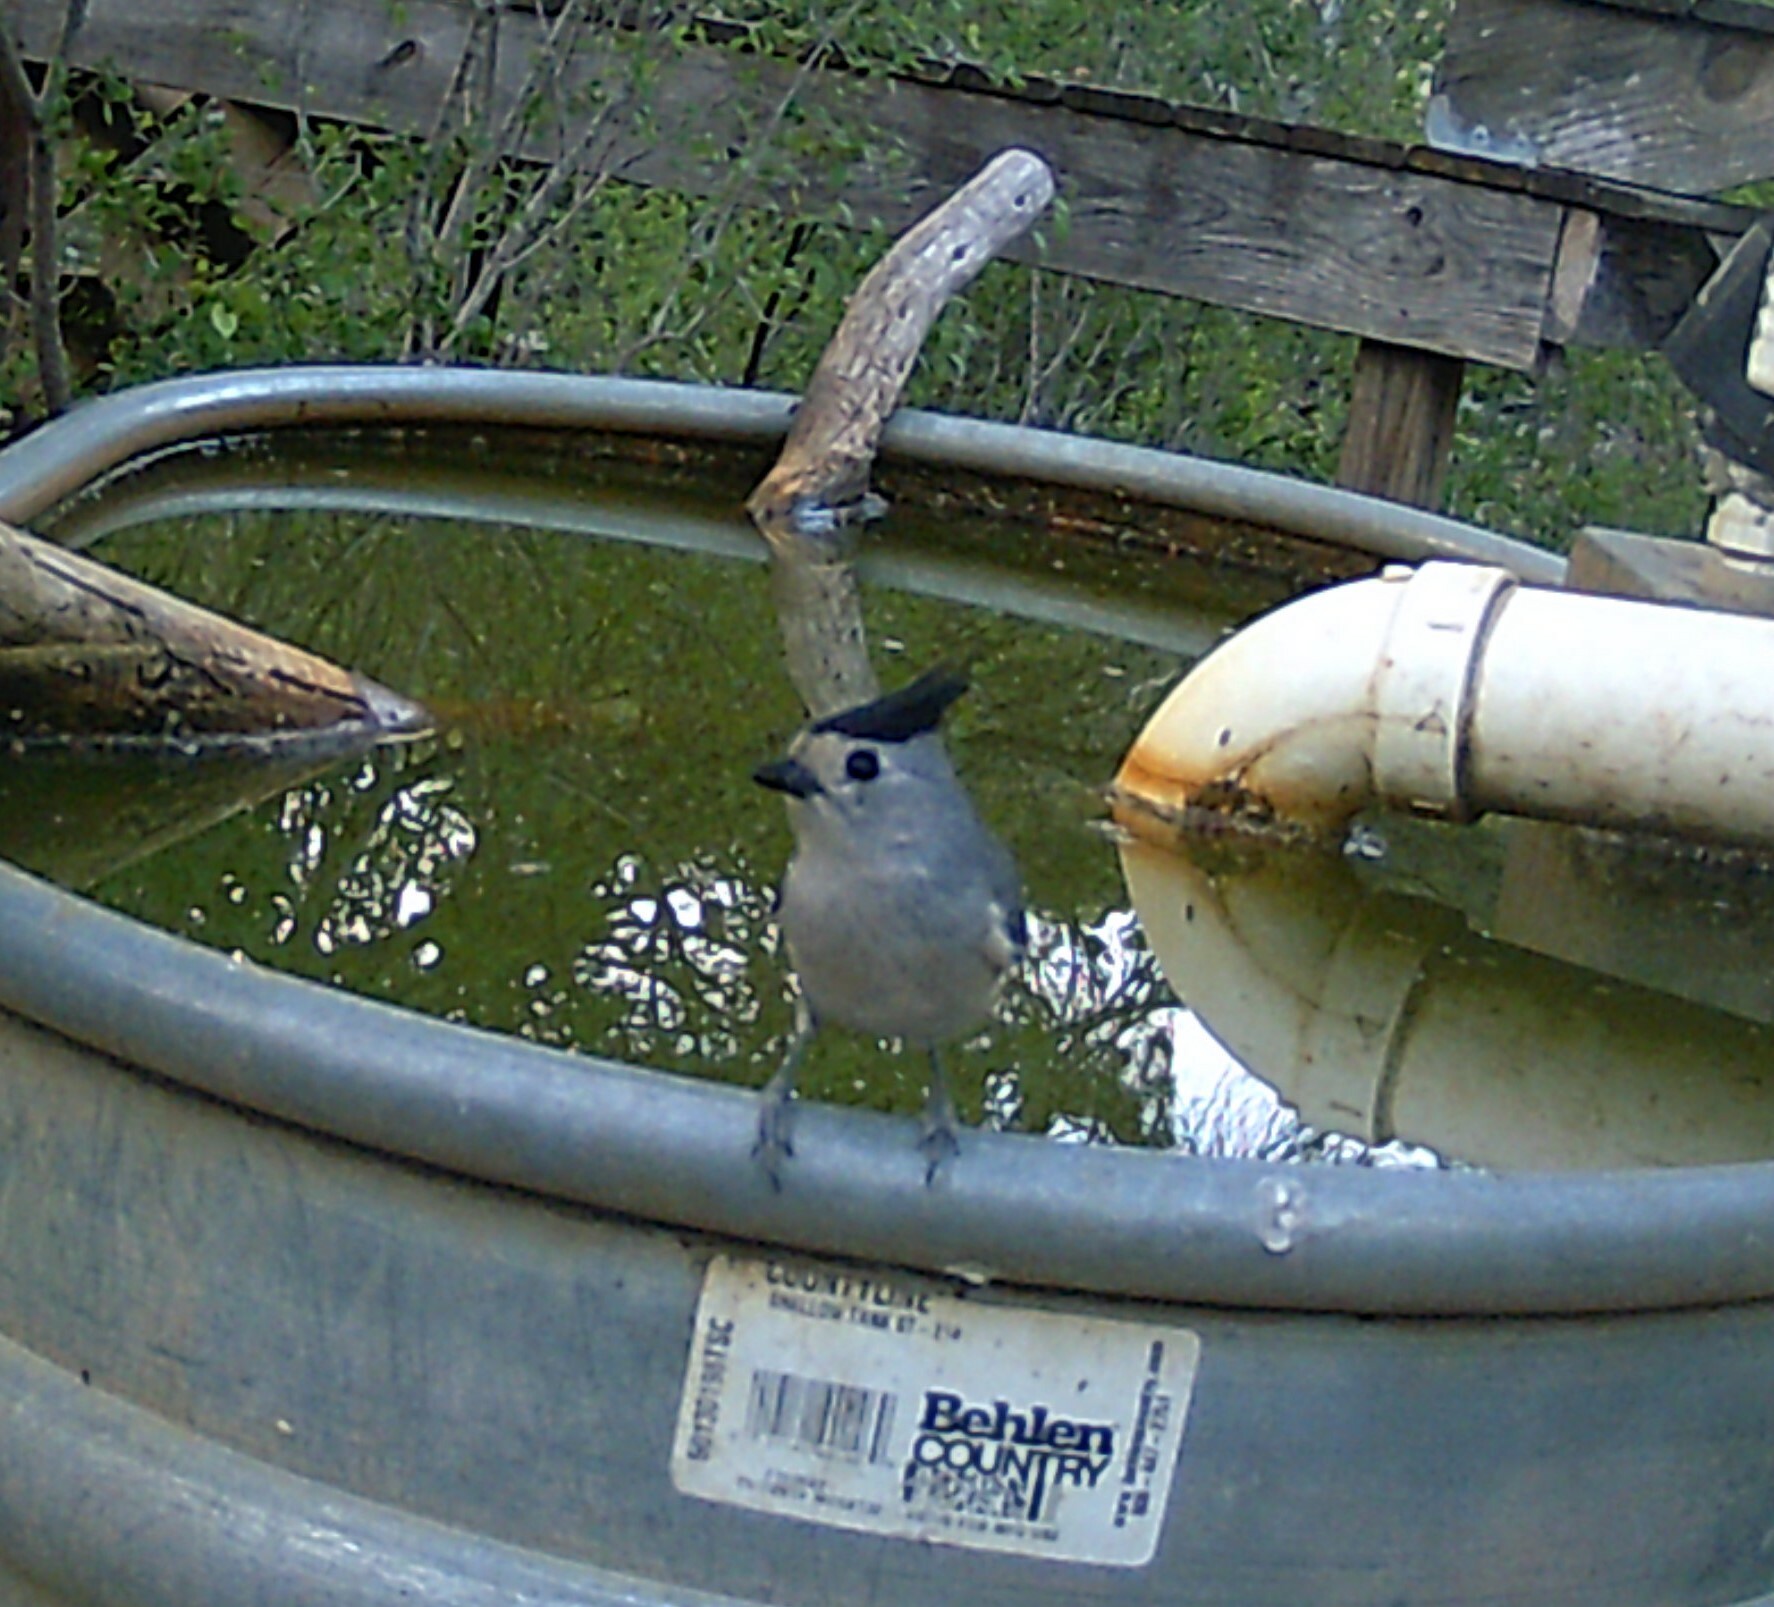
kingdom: Animalia
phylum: Chordata
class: Aves
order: Passeriformes
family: Paridae
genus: Baeolophus
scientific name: Baeolophus atricristatus
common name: Black-crested titmouse
